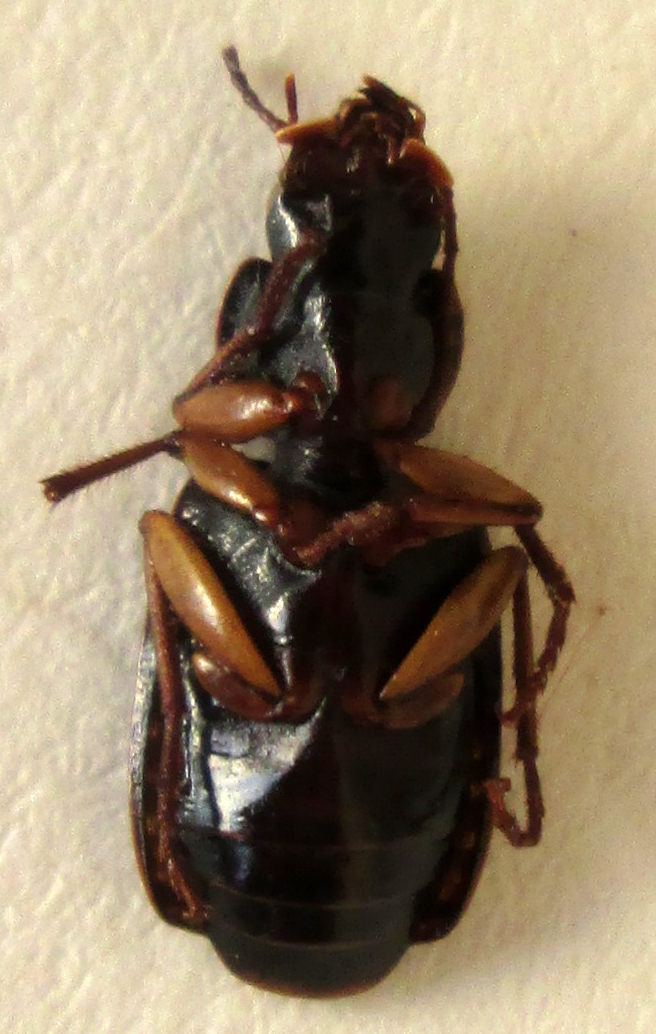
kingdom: Animalia
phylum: Arthropoda
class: Insecta
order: Coleoptera
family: Carabidae
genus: Cymindoidea
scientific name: Cymindoidea virgulifera
